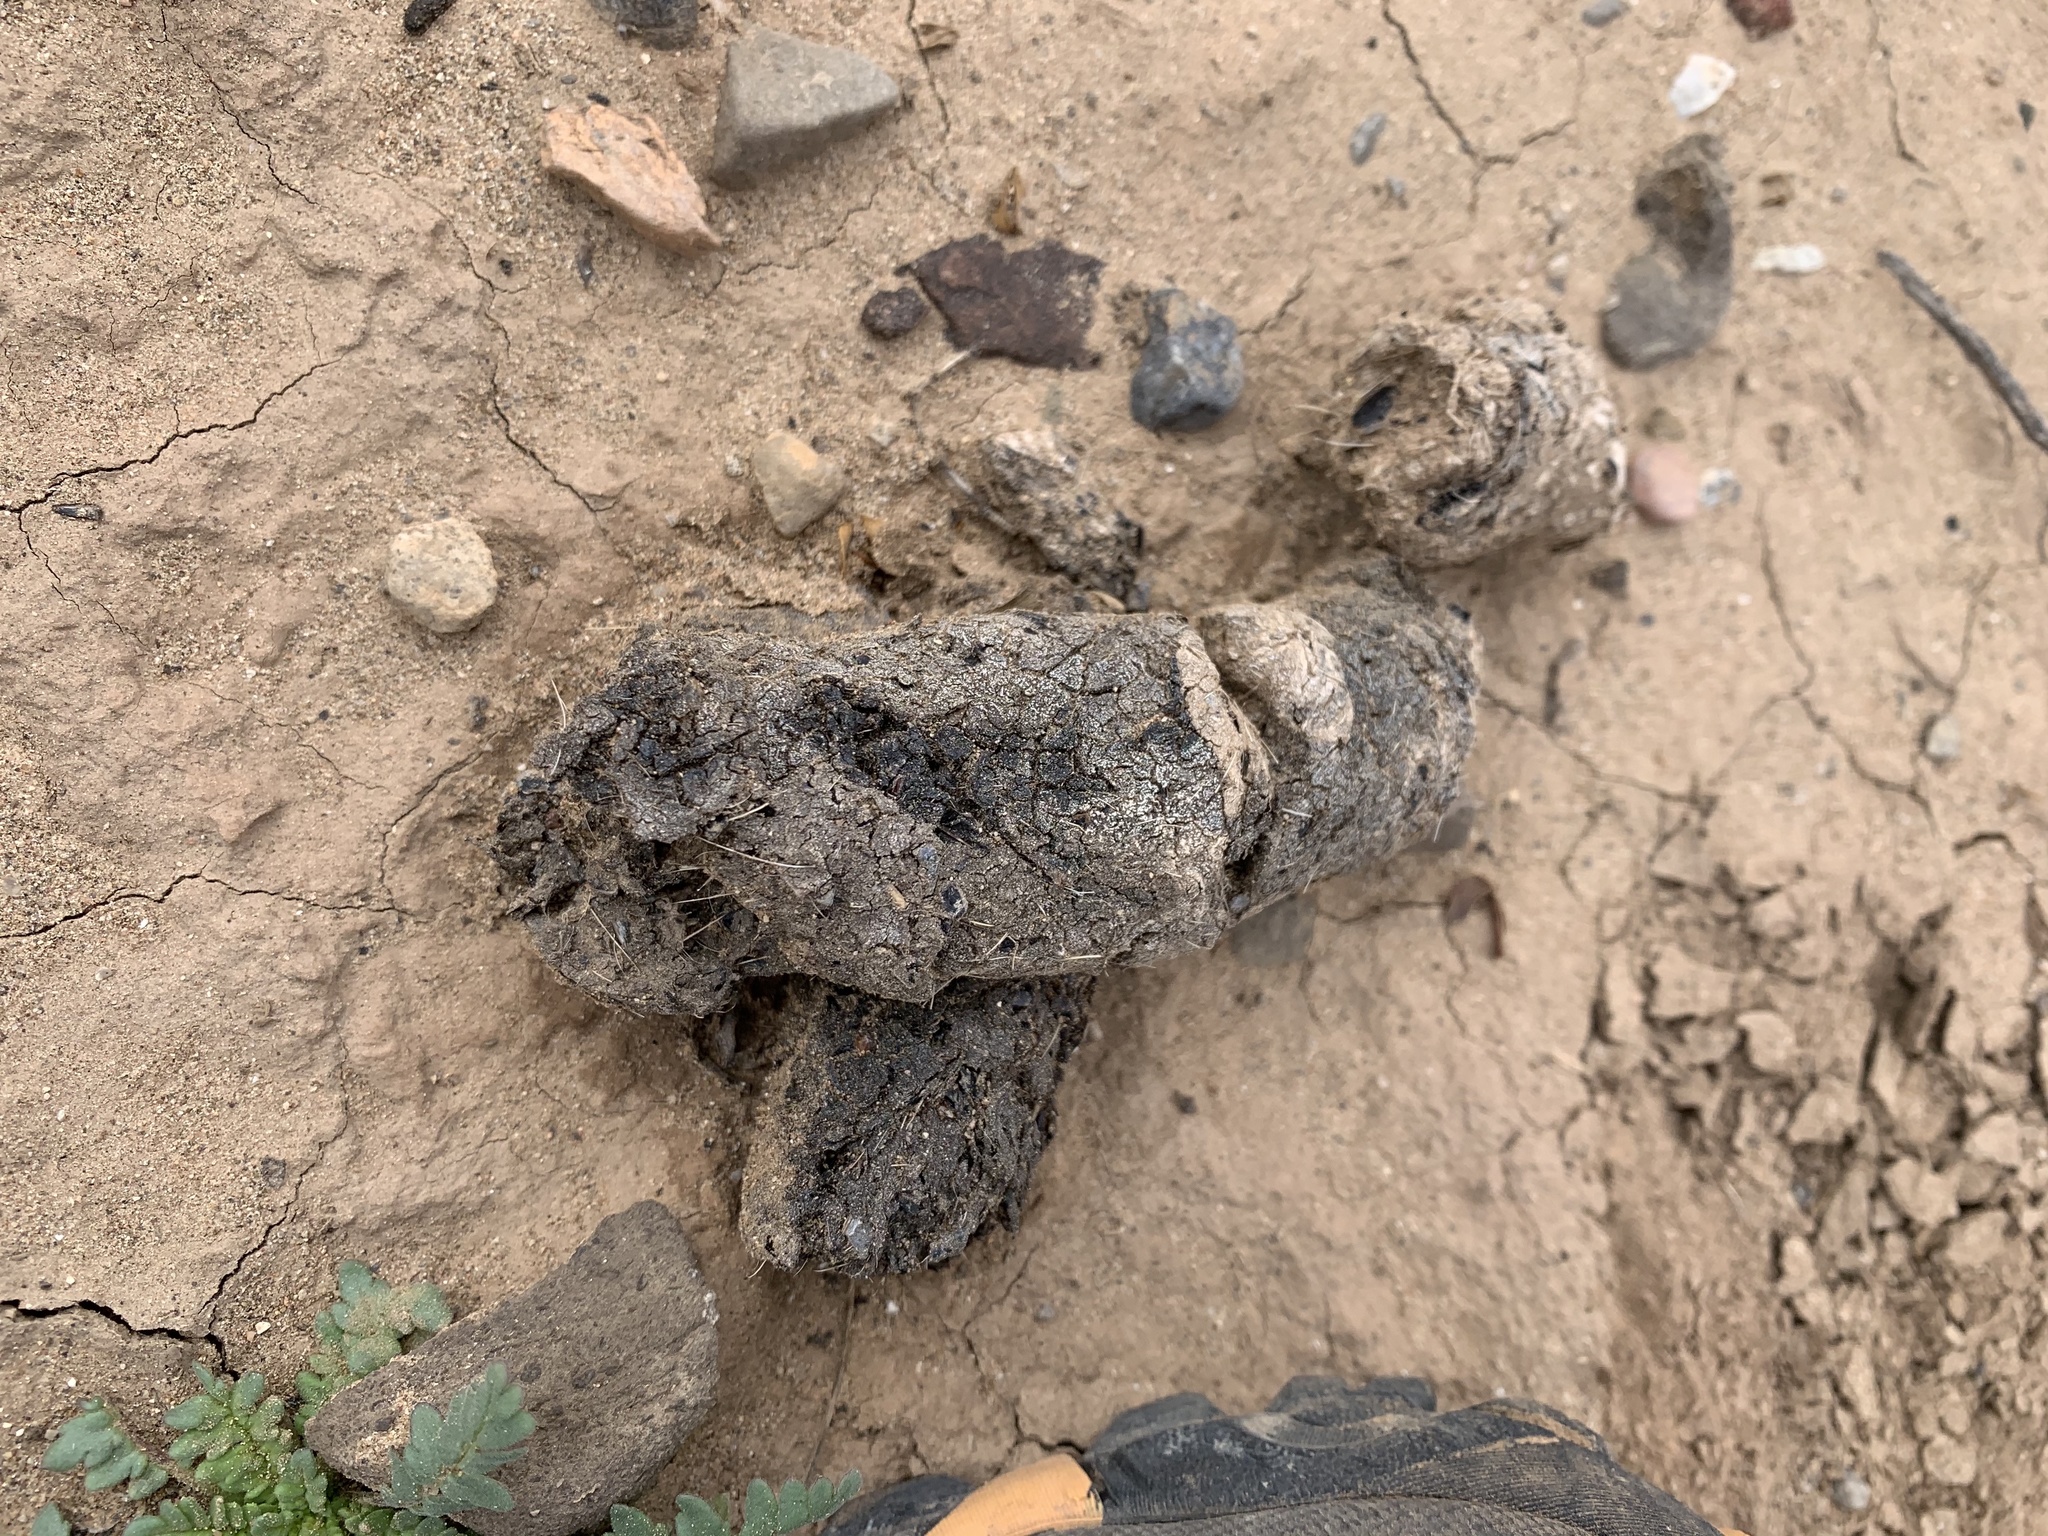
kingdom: Animalia
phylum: Chordata
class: Mammalia
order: Carnivora
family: Canidae
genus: Canis
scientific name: Canis latrans
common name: Coyote
